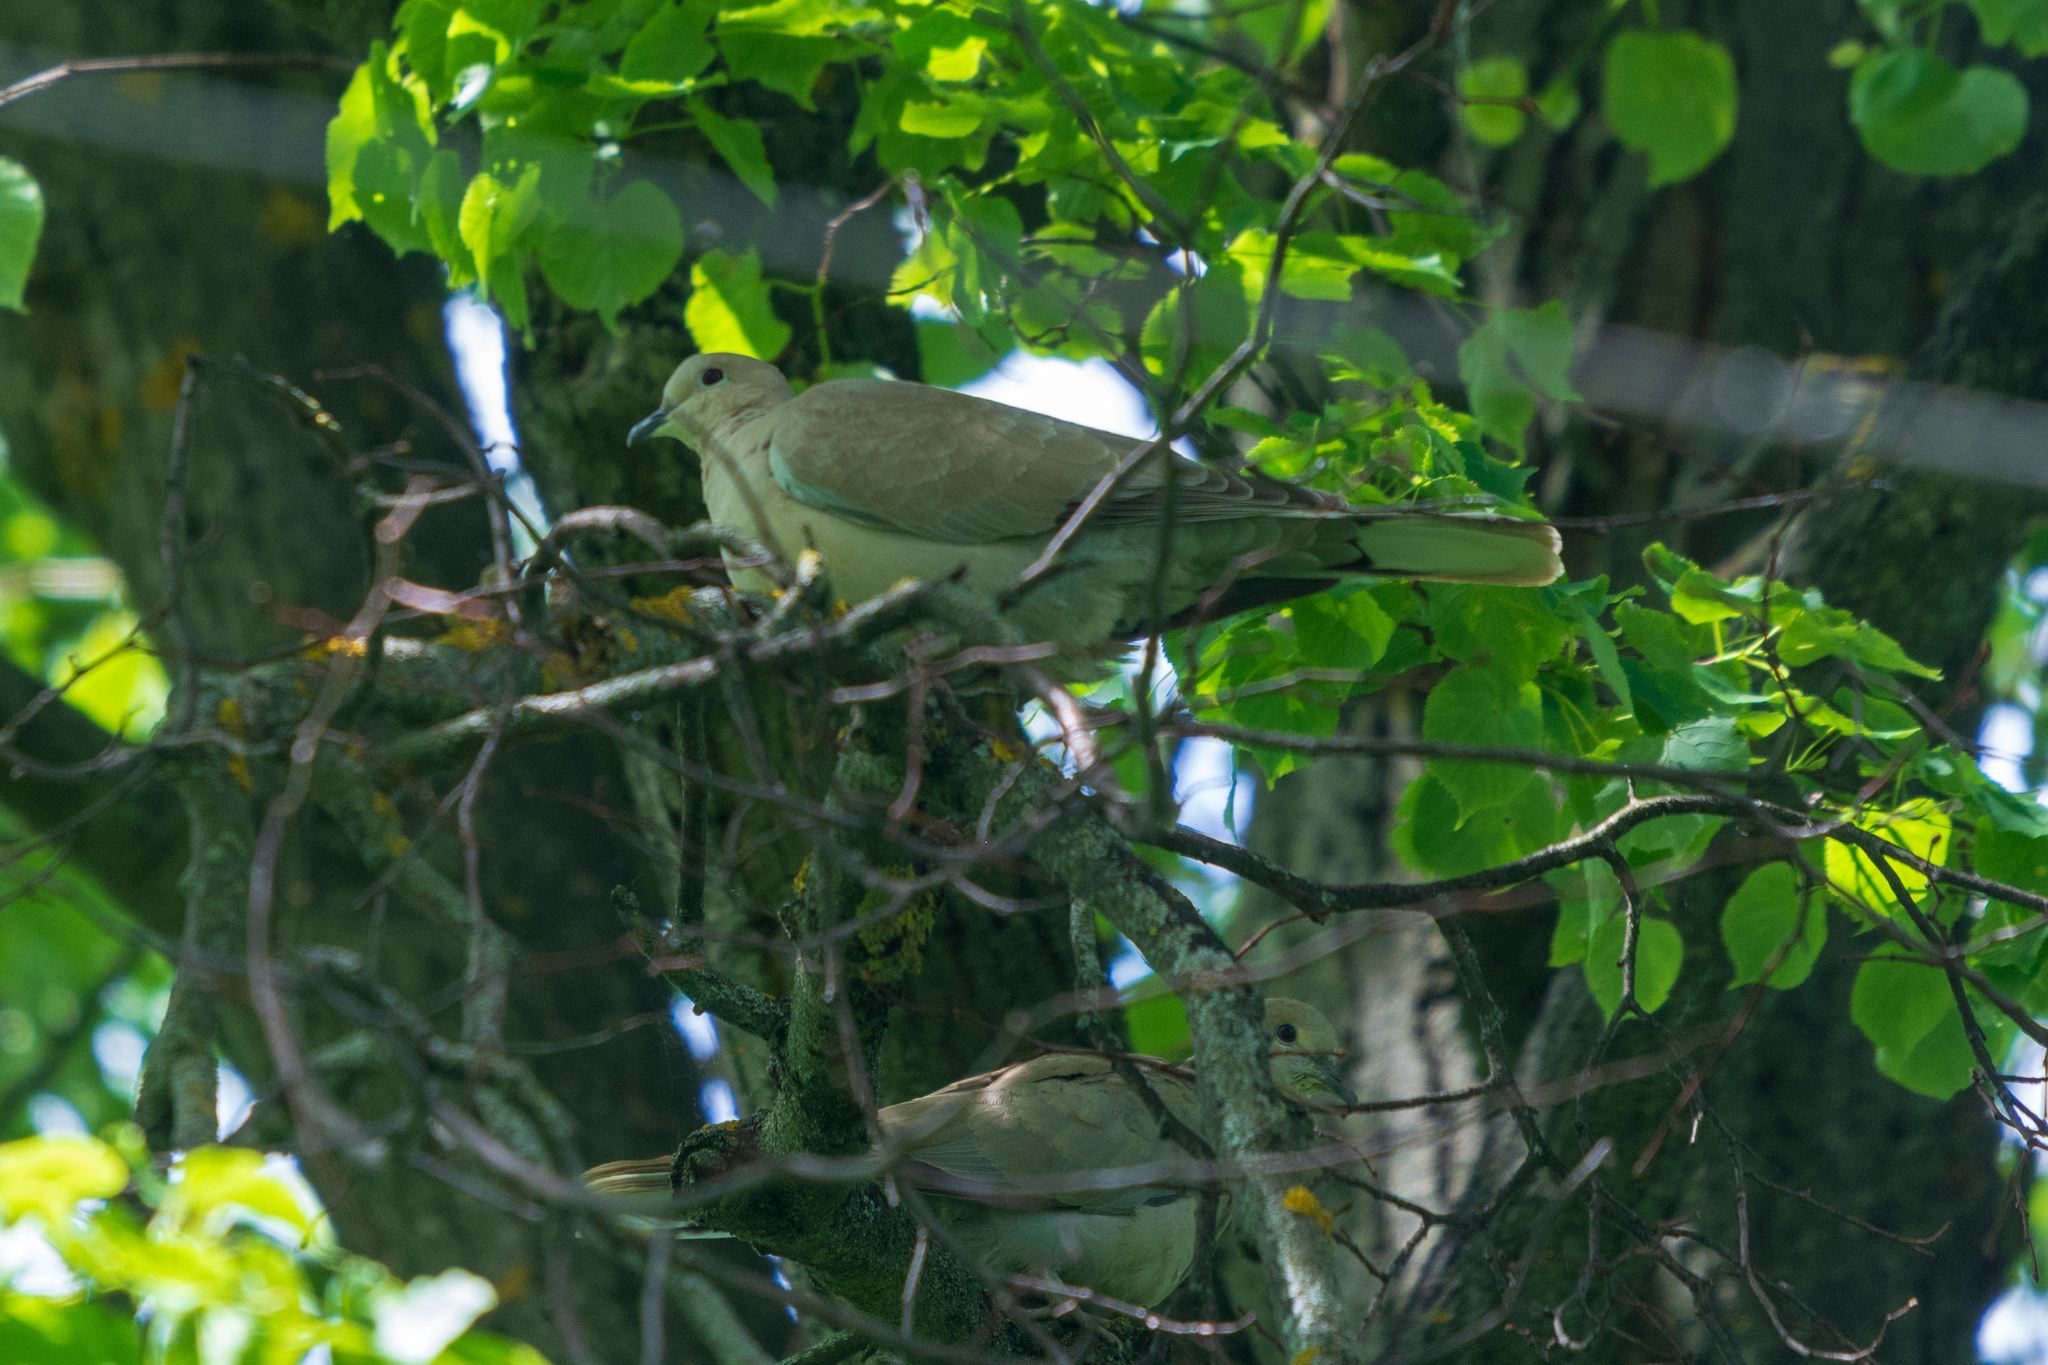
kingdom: Animalia
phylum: Chordata
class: Aves
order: Columbiformes
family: Columbidae
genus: Streptopelia
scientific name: Streptopelia decaocto
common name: Eurasian collared dove
